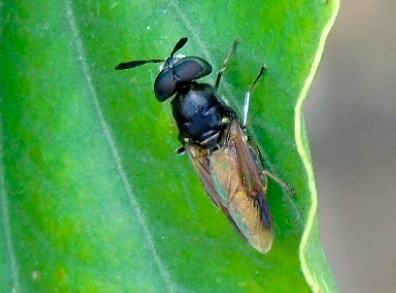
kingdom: Animalia
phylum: Arthropoda
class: Insecta
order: Diptera
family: Stratiomyidae
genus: Hoplitimyia
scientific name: Hoplitimyia
